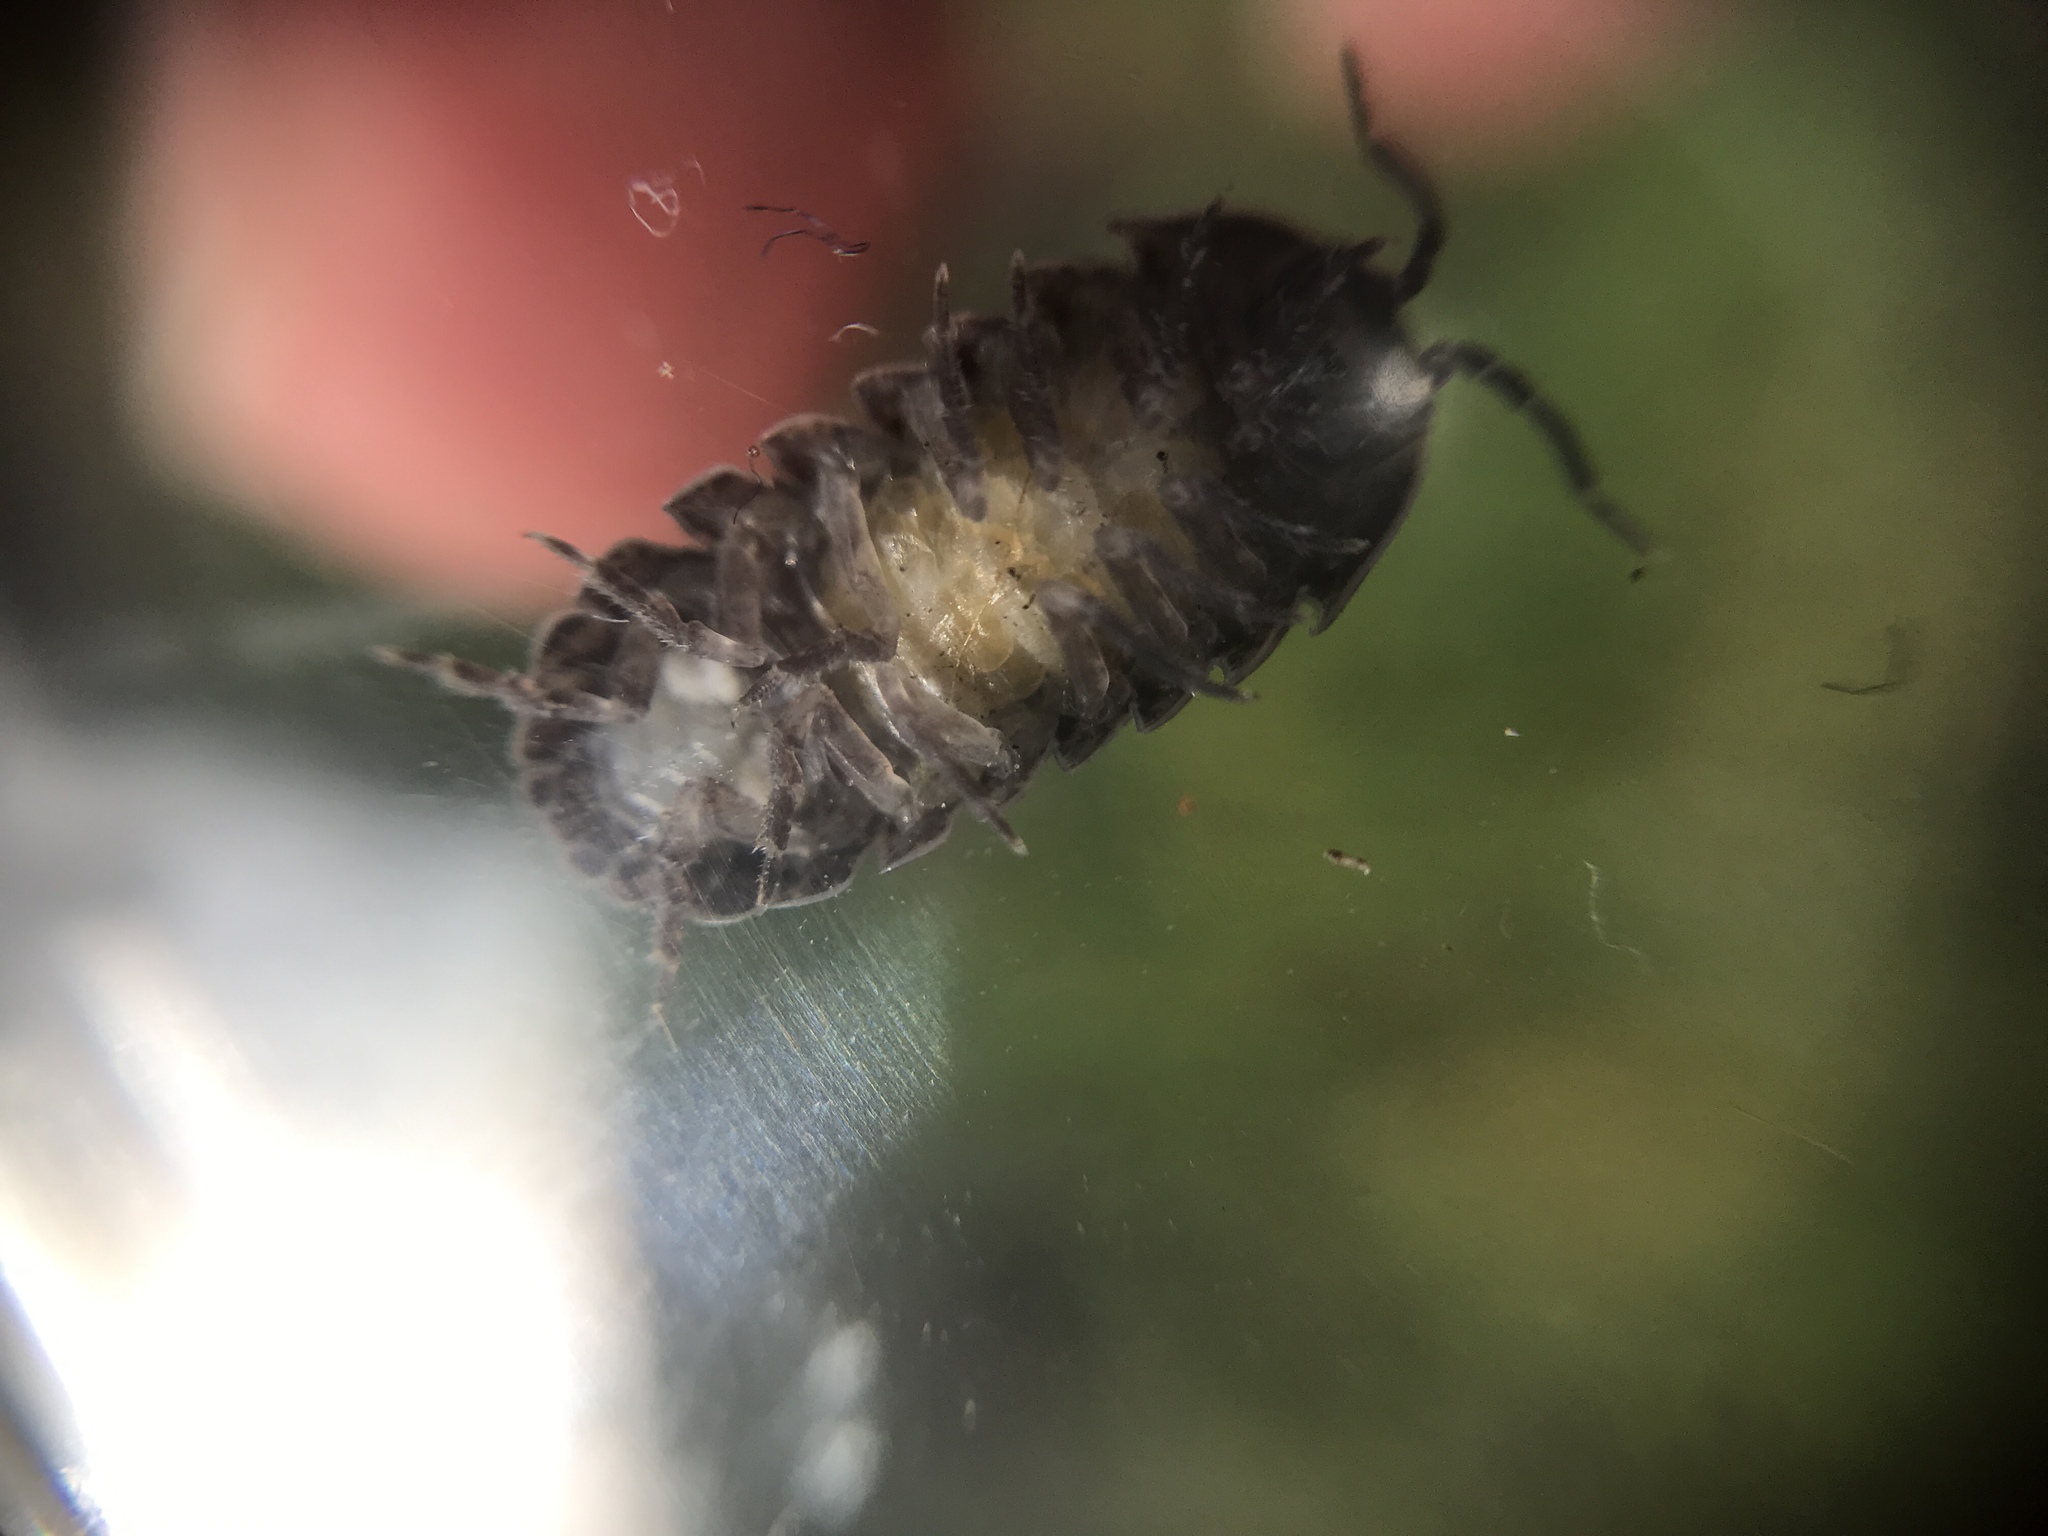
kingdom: Animalia
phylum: Arthropoda
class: Malacostraca
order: Isopoda
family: Armadillidiidae
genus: Armadillidium
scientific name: Armadillidium vulgare
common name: Common pill woodlouse
